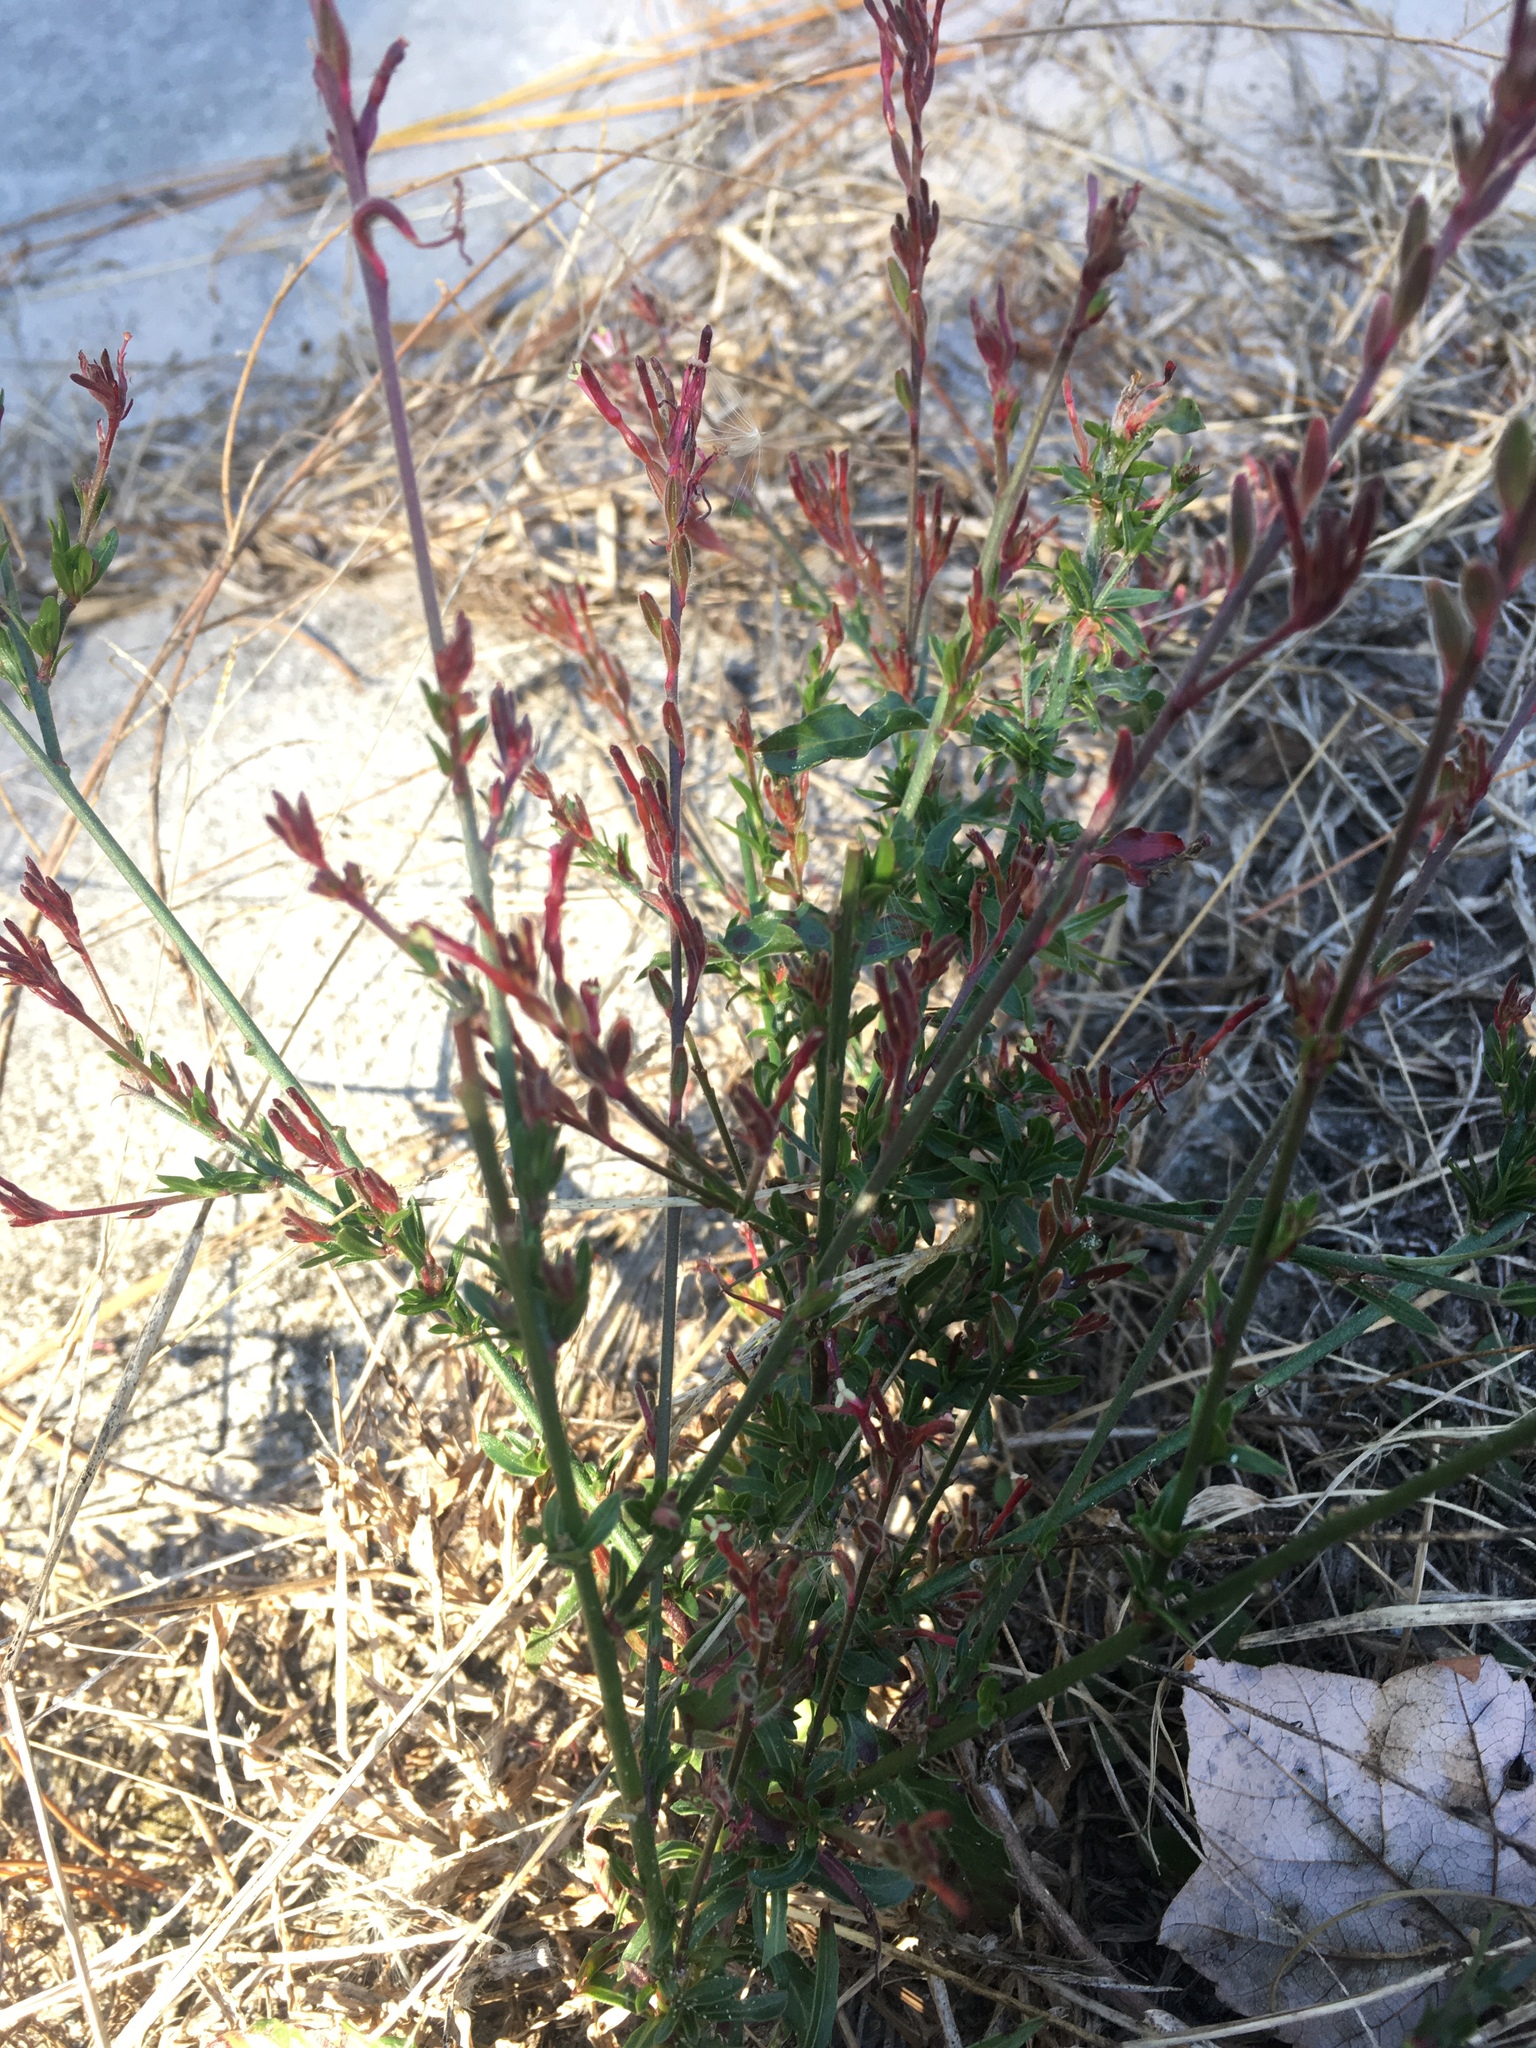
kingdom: Plantae
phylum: Tracheophyta
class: Magnoliopsida
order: Myrtales
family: Onagraceae
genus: Oenothera
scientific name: Oenothera simulans
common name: Southern beeblossom
